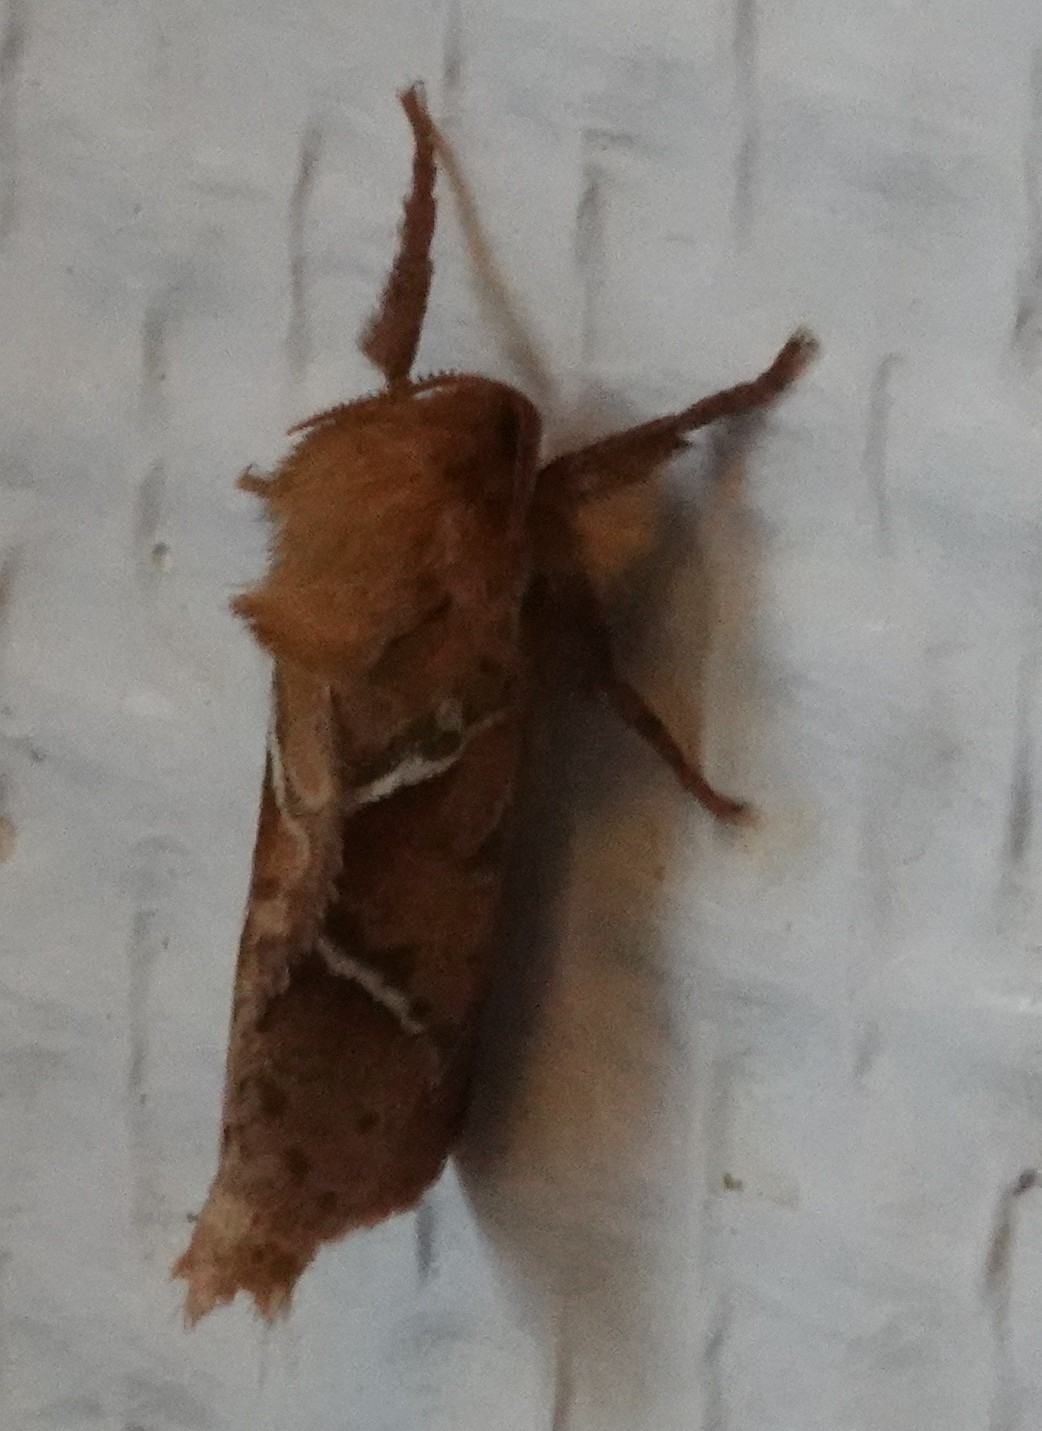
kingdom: Animalia
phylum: Arthropoda
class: Insecta
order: Lepidoptera
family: Hepialidae
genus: Triodia
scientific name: Triodia sylvina
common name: Orange swift
